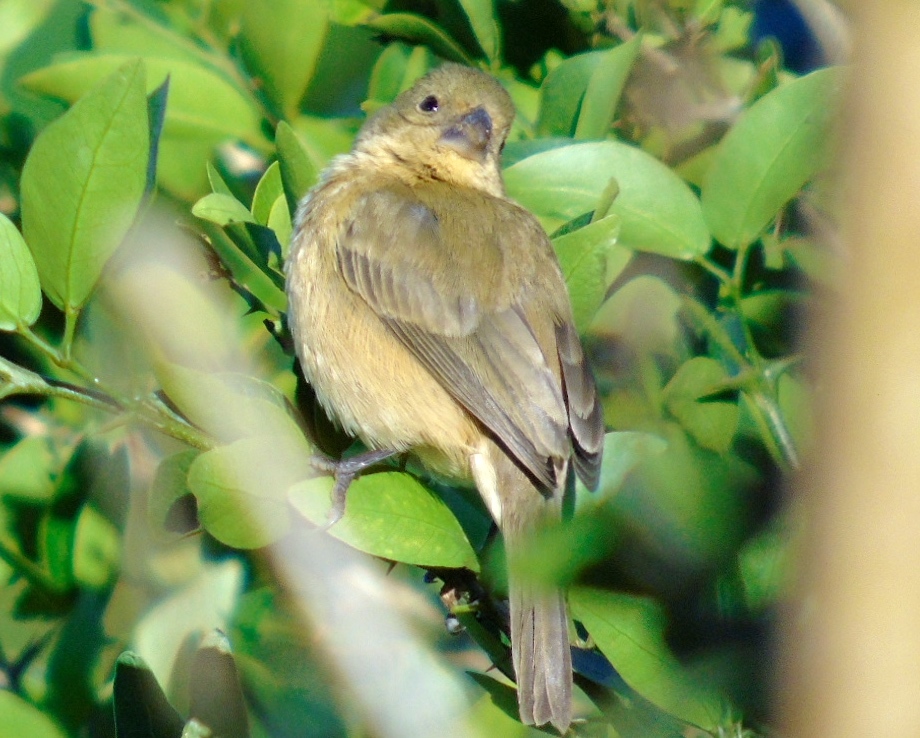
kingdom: Animalia
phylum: Chordata
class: Aves
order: Passeriformes
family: Thraupidae
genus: Sporophila
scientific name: Sporophila torqueola
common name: White-collared seedeater
